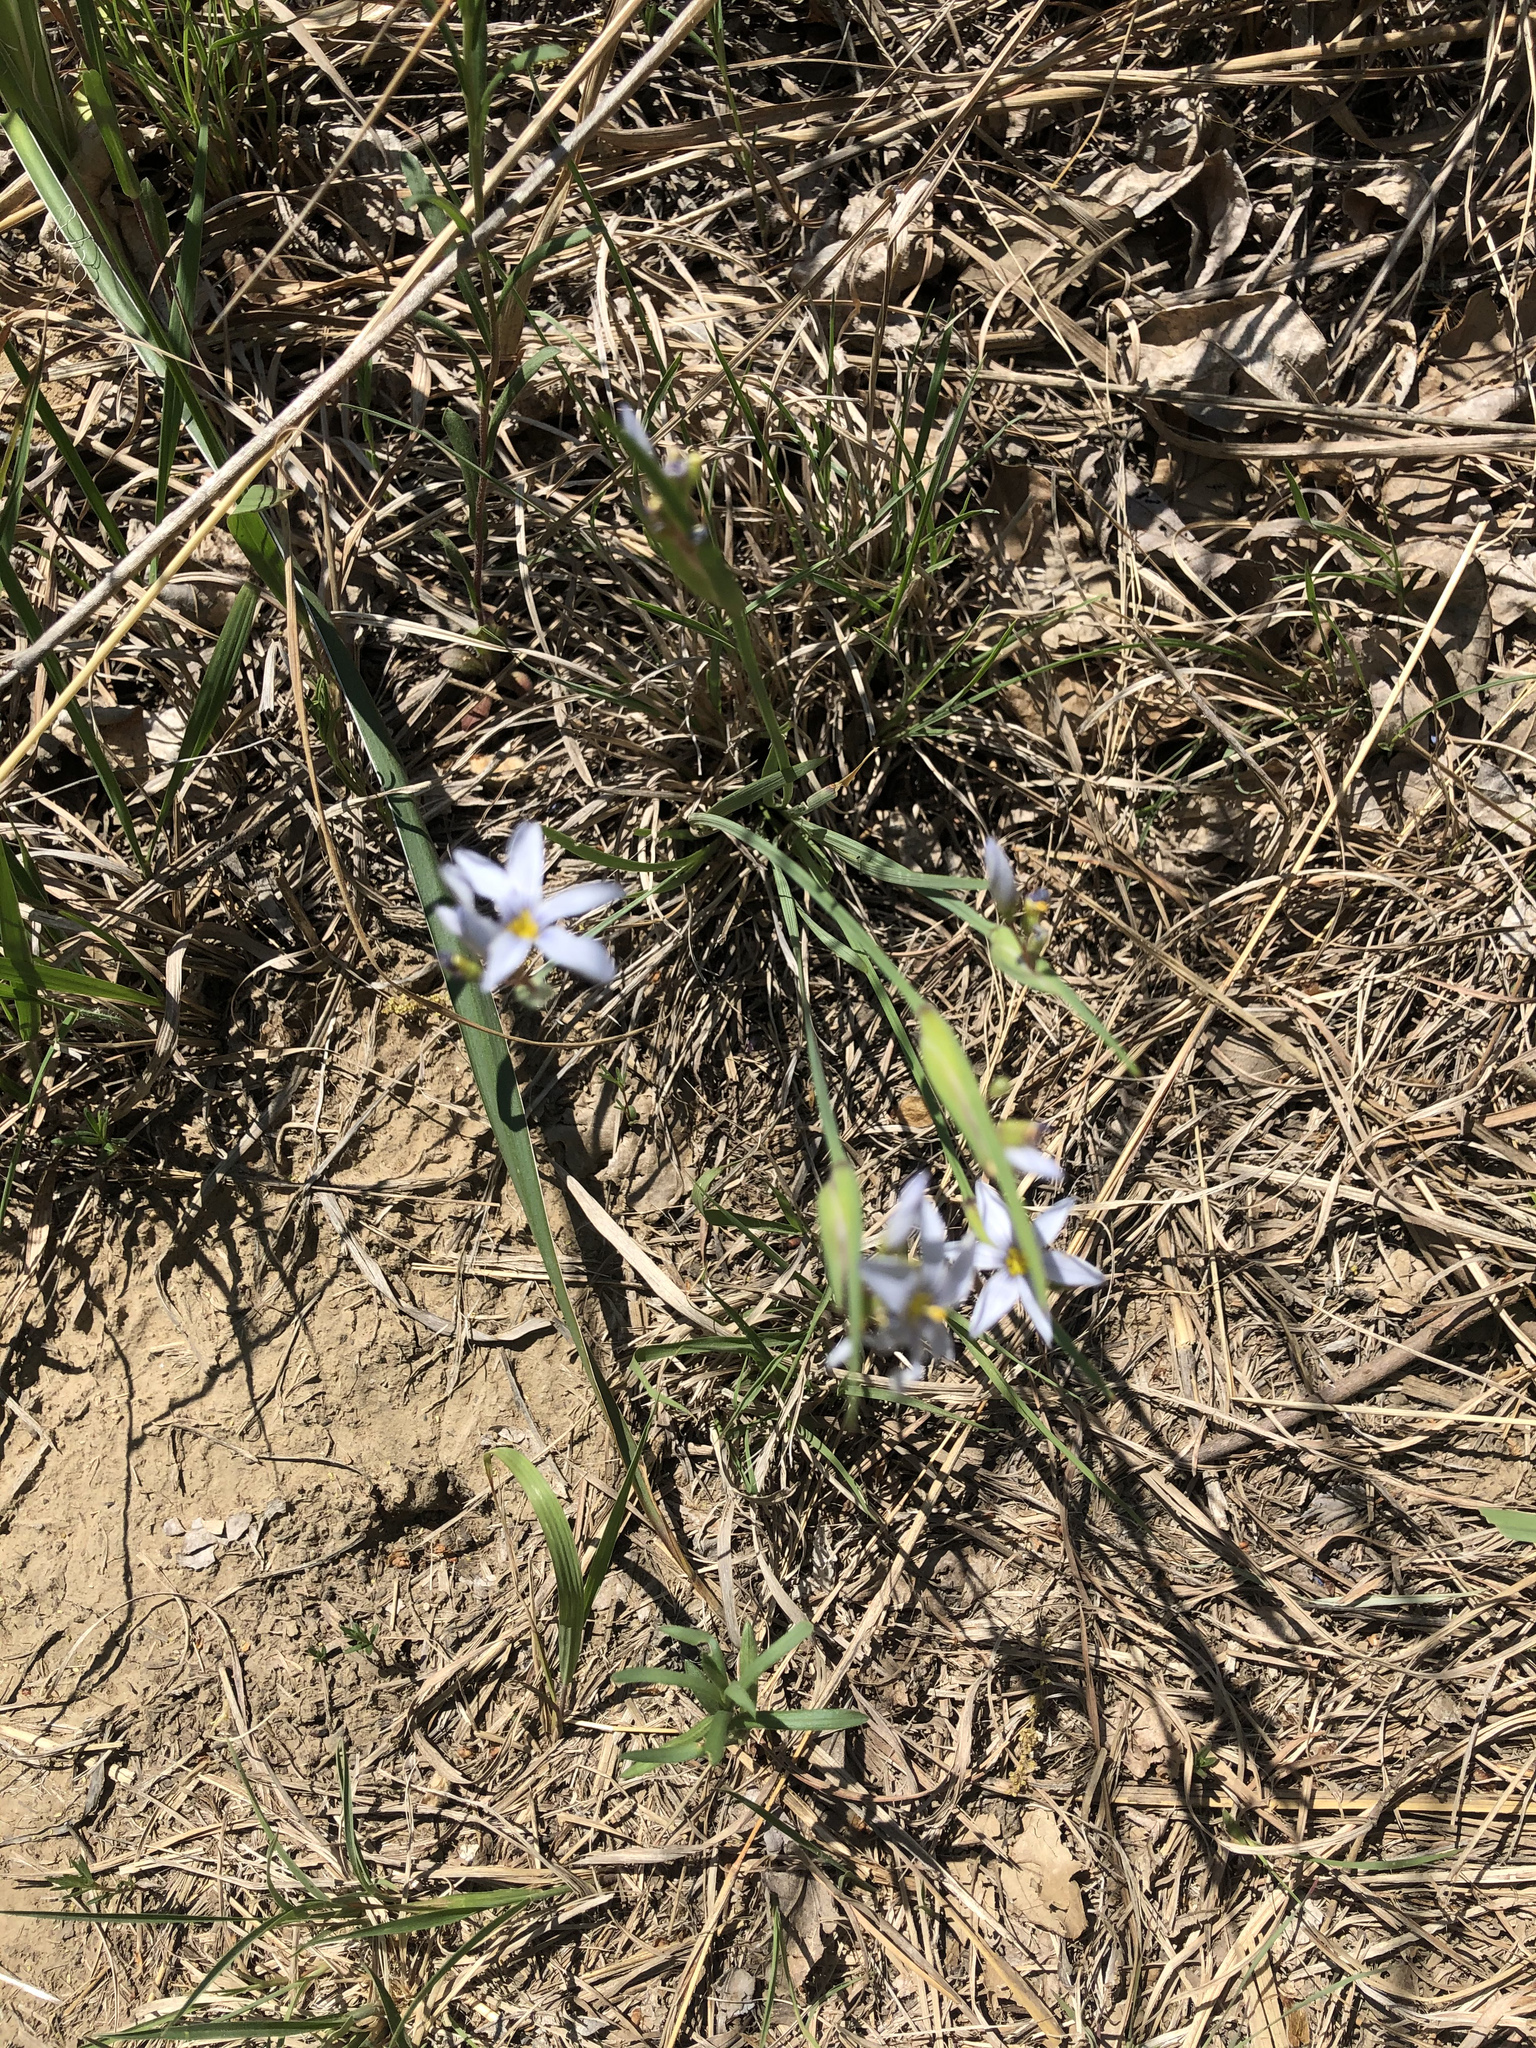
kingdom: Plantae
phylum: Tracheophyta
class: Liliopsida
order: Asparagales
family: Iridaceae
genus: Sisyrinchium
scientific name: Sisyrinchium campestre
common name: Prairie blue-eyed-grass
